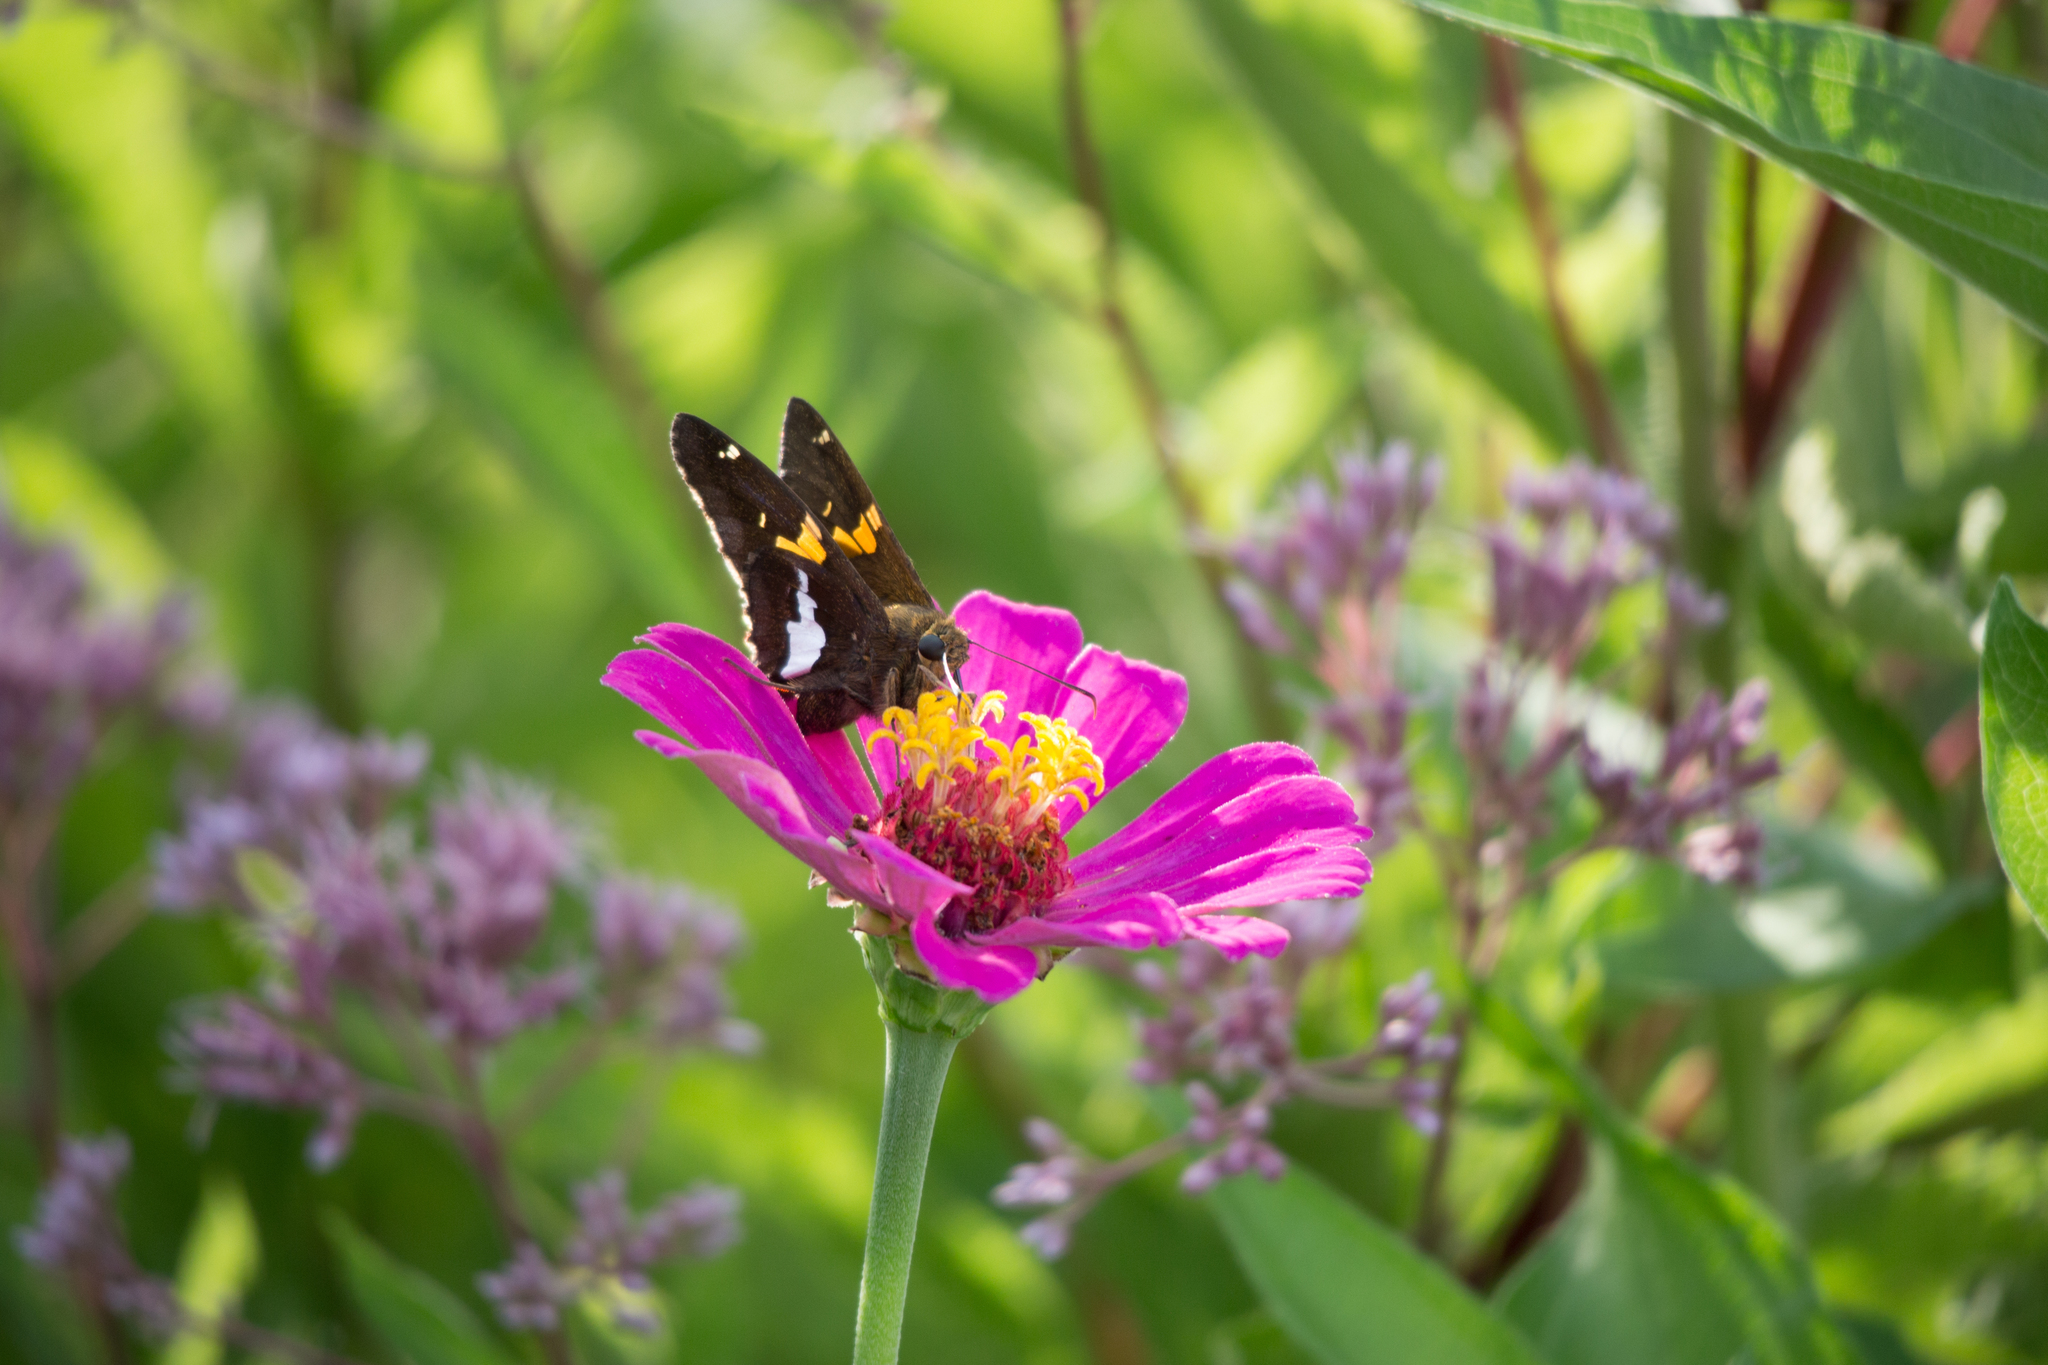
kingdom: Animalia
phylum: Arthropoda
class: Insecta
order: Lepidoptera
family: Hesperiidae
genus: Epargyreus
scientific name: Epargyreus clarus
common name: Silver-spotted skipper
